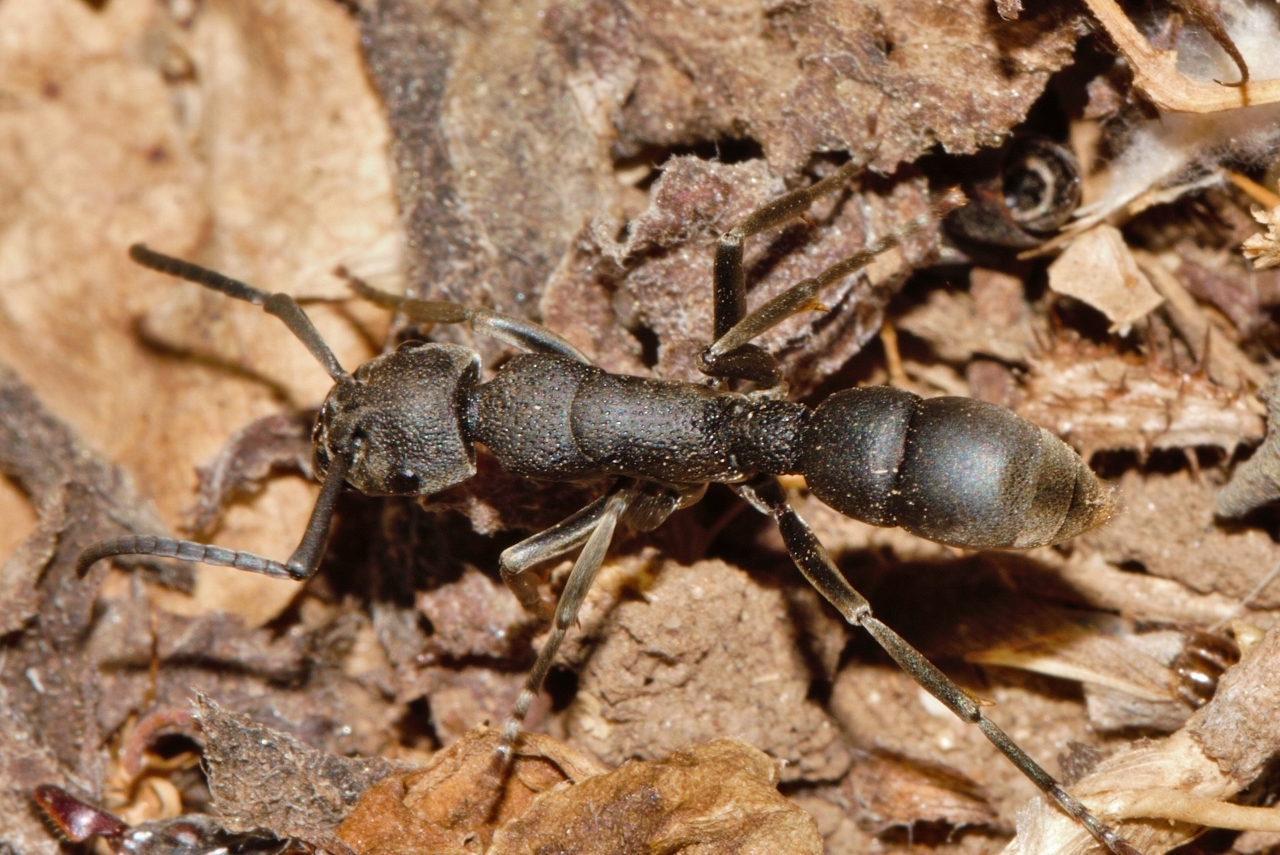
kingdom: Animalia
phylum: Arthropoda
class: Insecta
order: Hymenoptera
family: Formicidae
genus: Platythyrea
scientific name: Platythyrea cribrinodis
